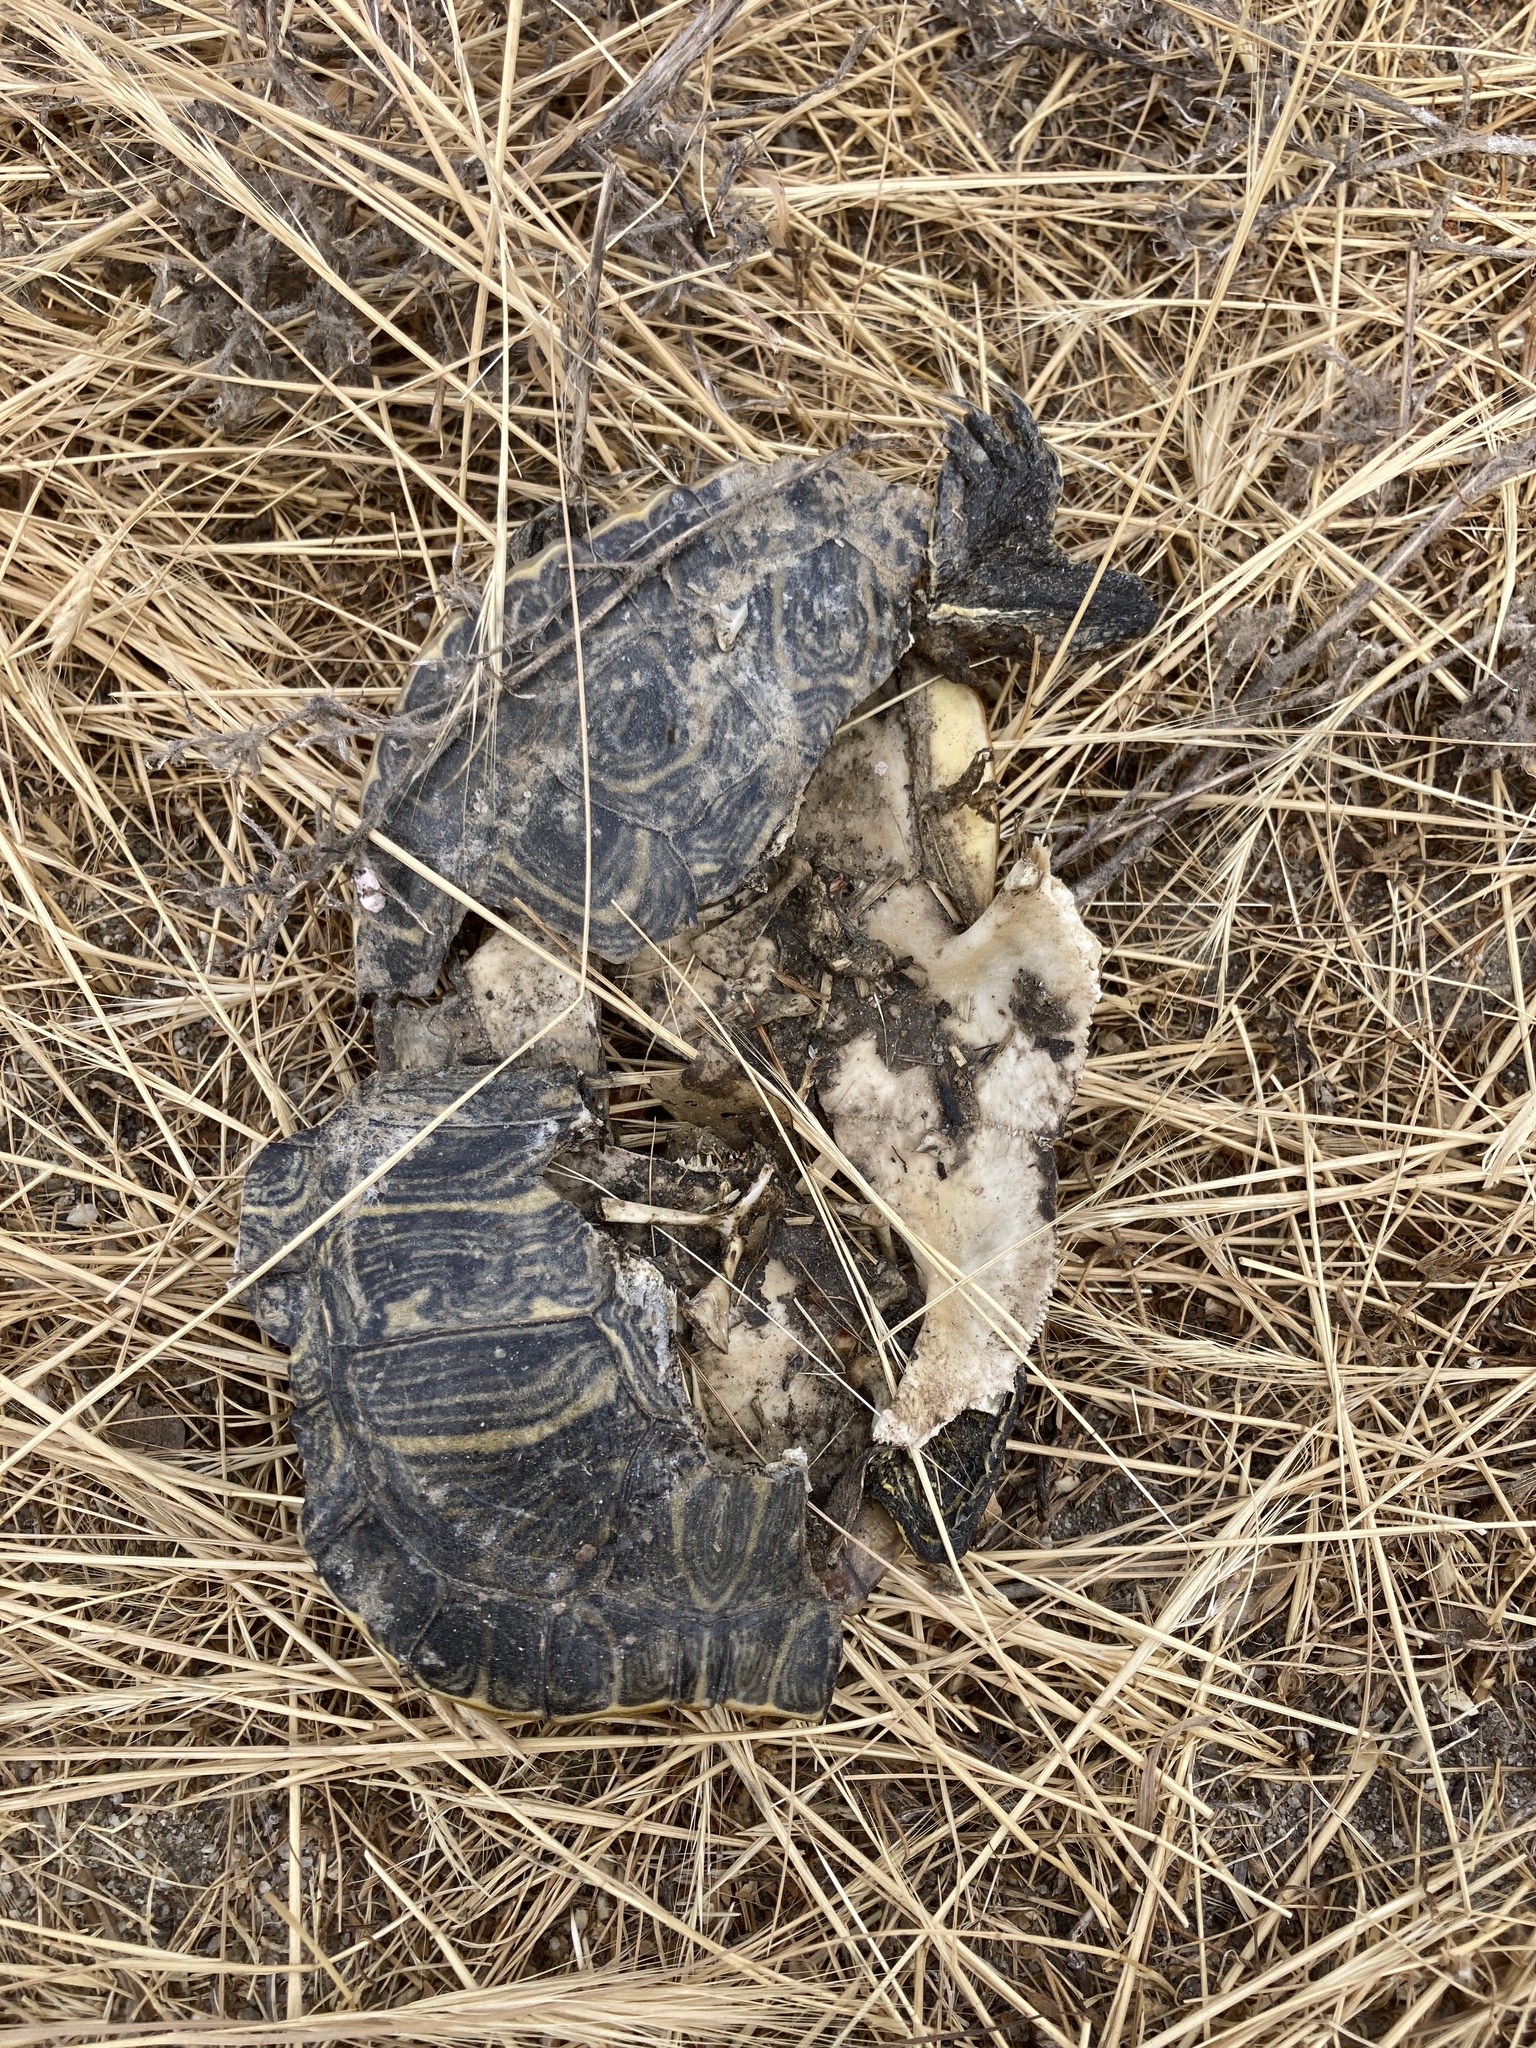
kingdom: Animalia
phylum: Chordata
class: Testudines
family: Emydidae
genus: Trachemys
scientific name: Trachemys scripta
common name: Slider
